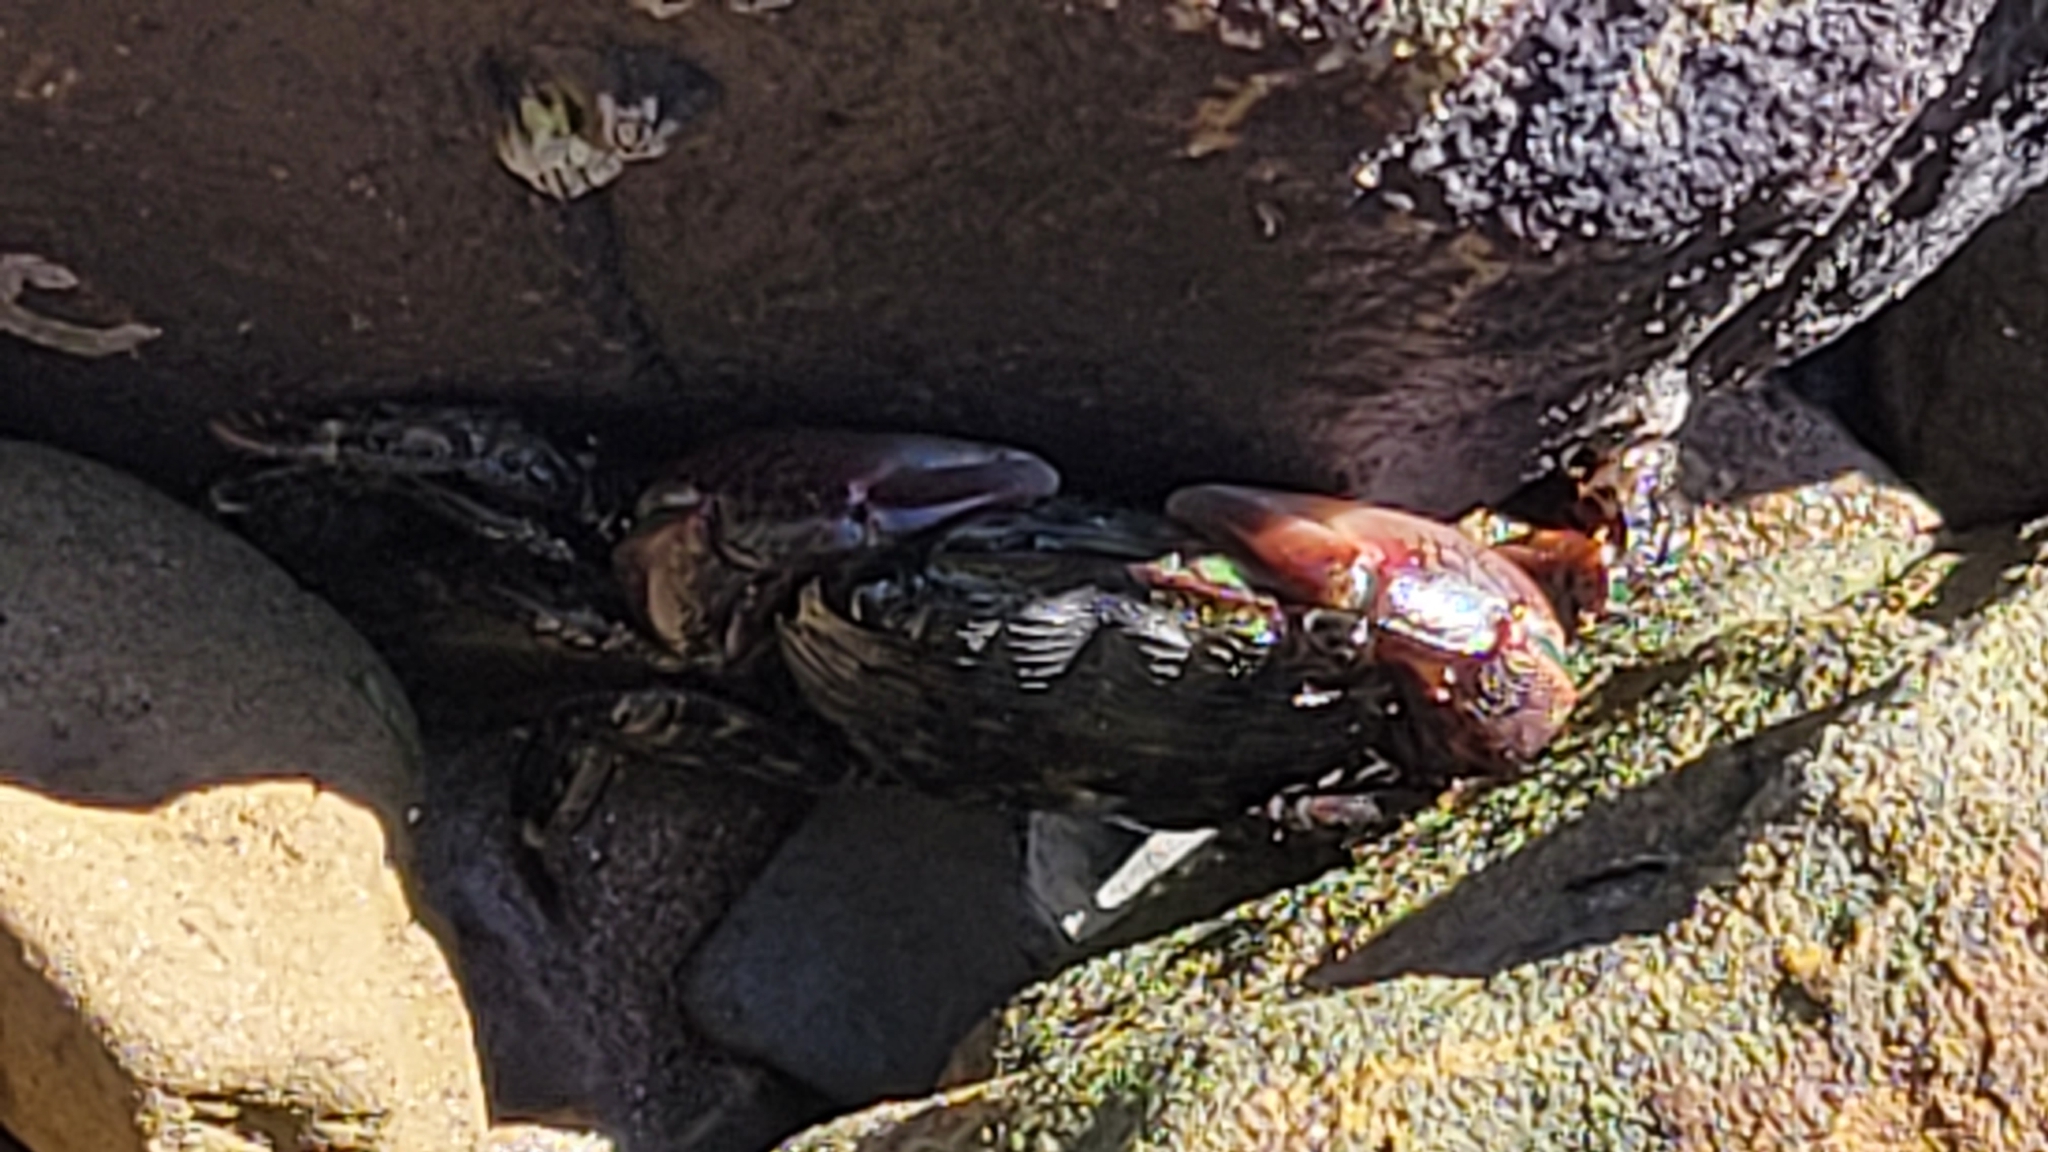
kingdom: Animalia
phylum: Arthropoda
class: Malacostraca
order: Decapoda
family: Grapsidae
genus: Pachygrapsus
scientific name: Pachygrapsus crassipes
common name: Striped shore crab
